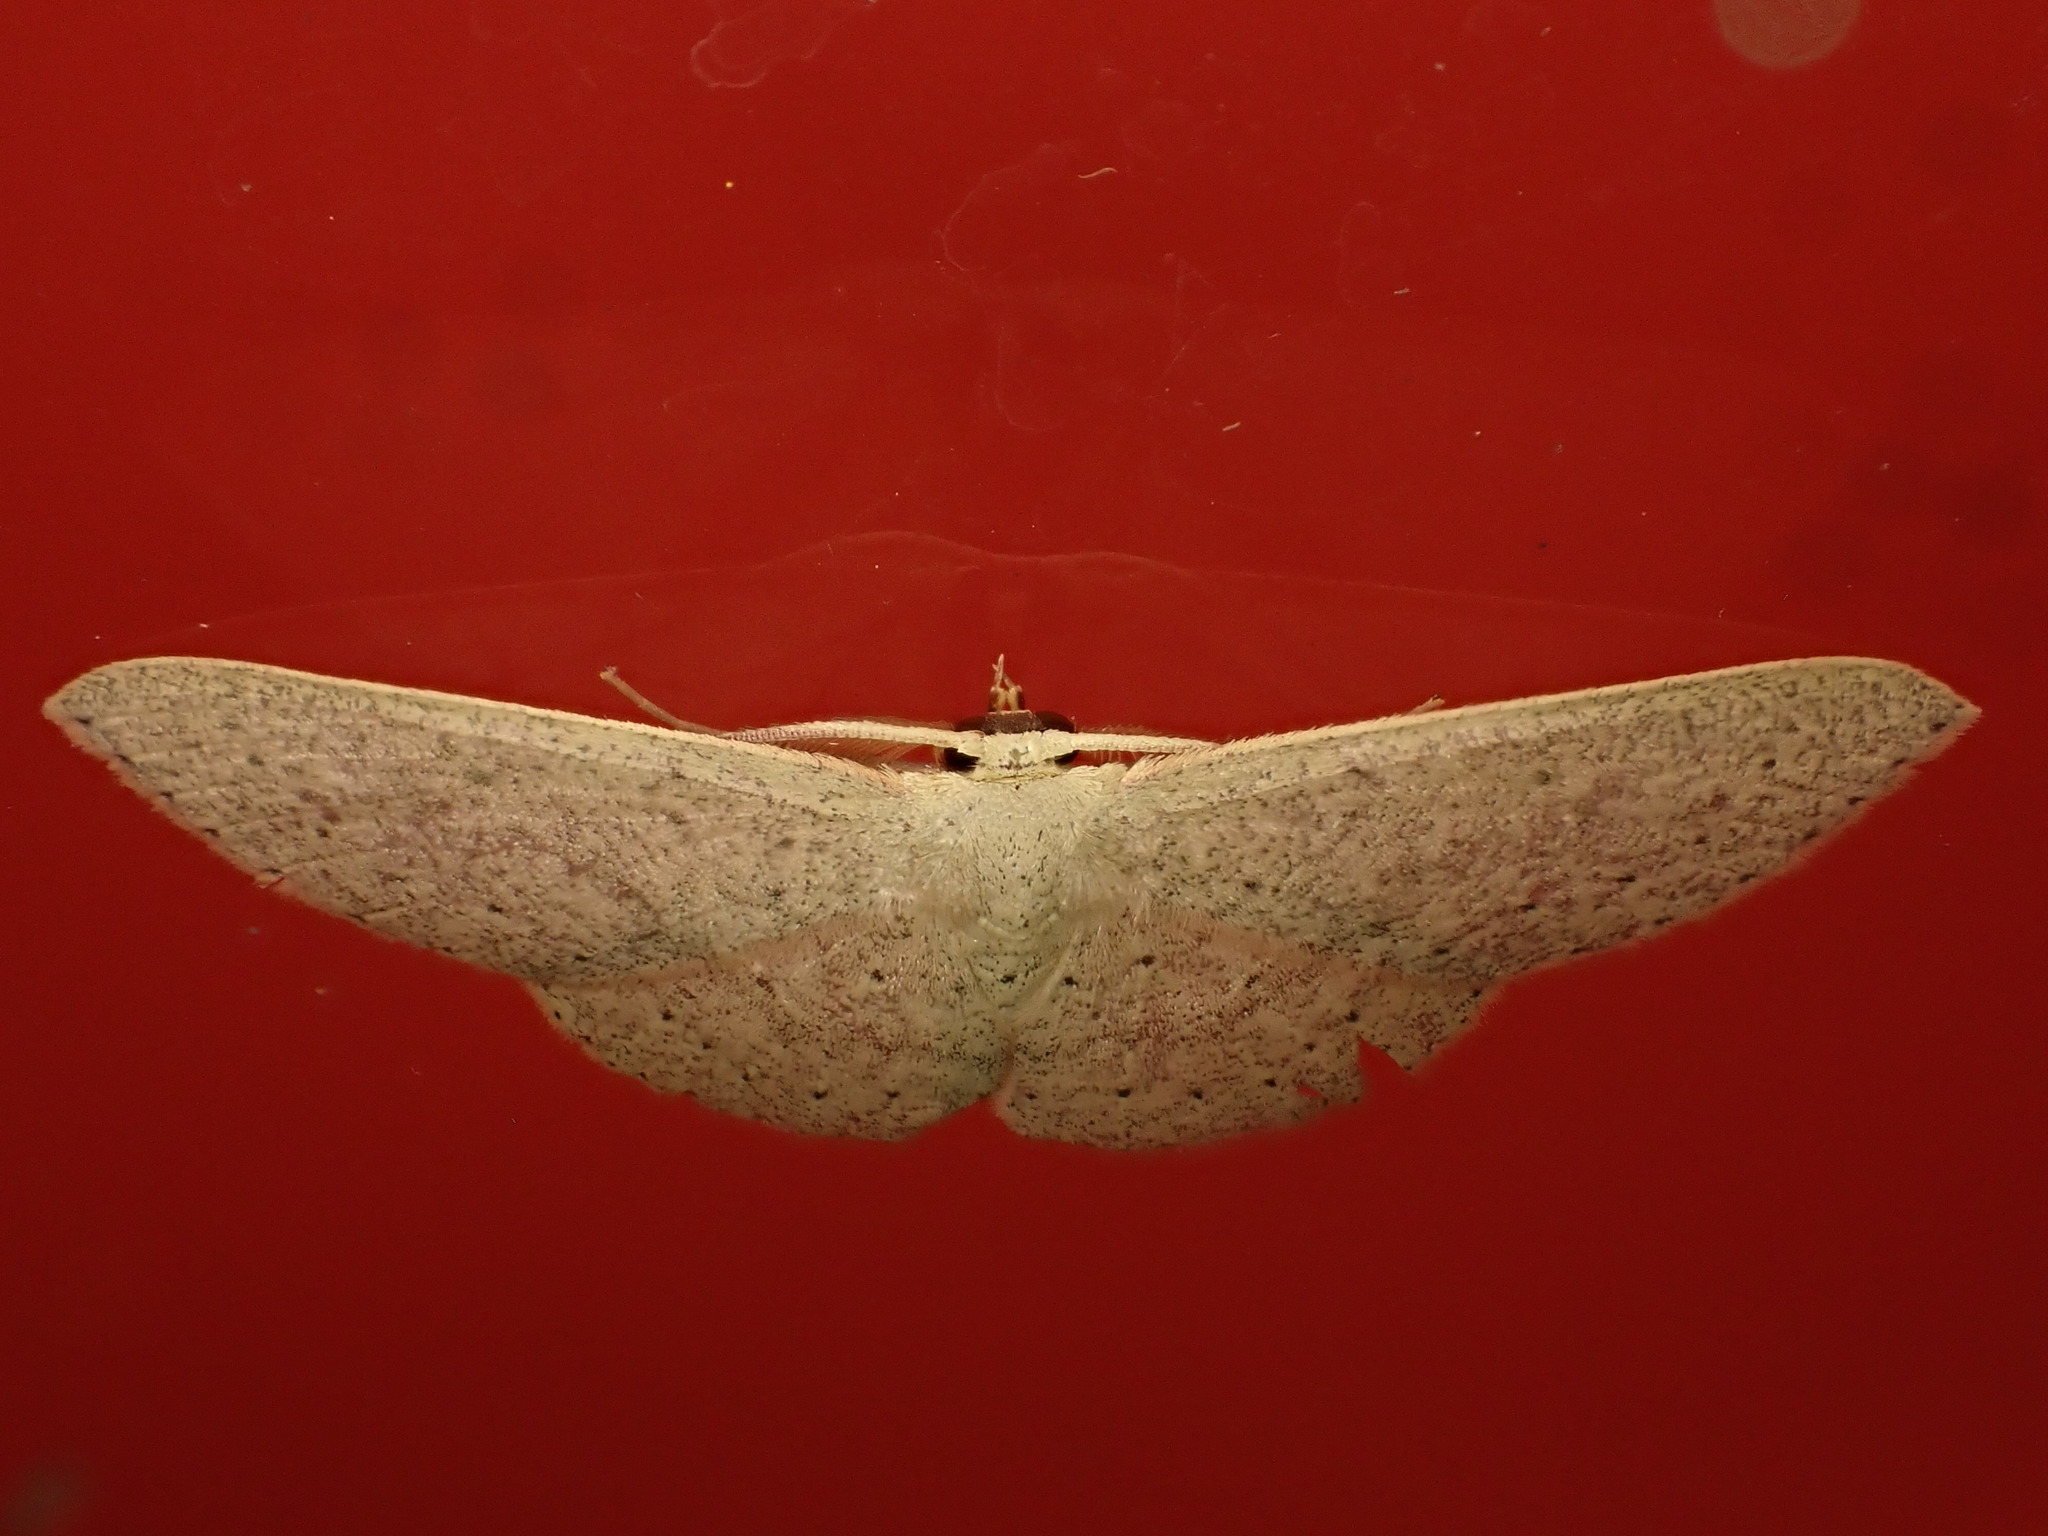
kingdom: Animalia
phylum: Arthropoda
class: Insecta
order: Lepidoptera
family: Geometridae
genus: Cyclophora
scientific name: Cyclophora obstataria
